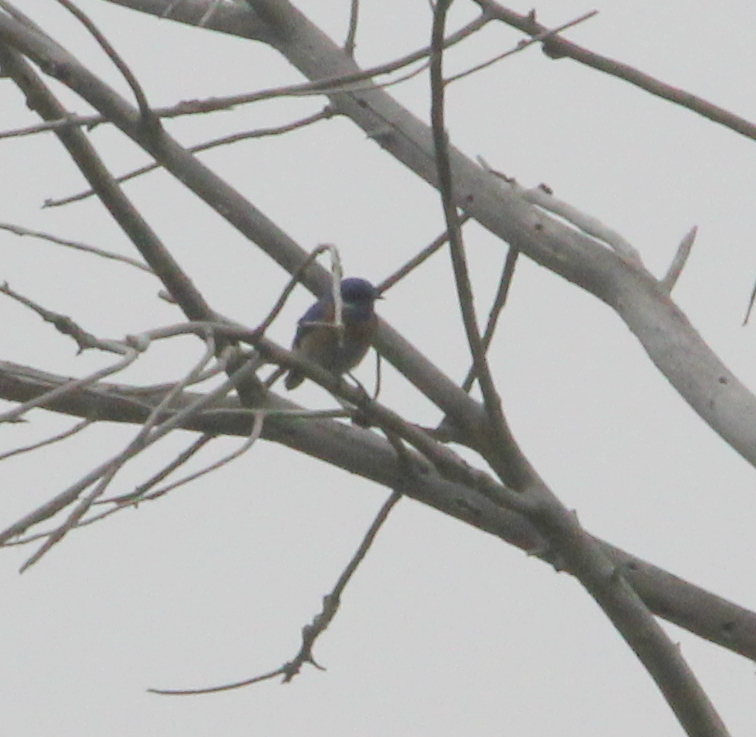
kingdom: Animalia
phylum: Chordata
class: Aves
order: Passeriformes
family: Turdidae
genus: Sialia
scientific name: Sialia mexicana
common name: Western bluebird
